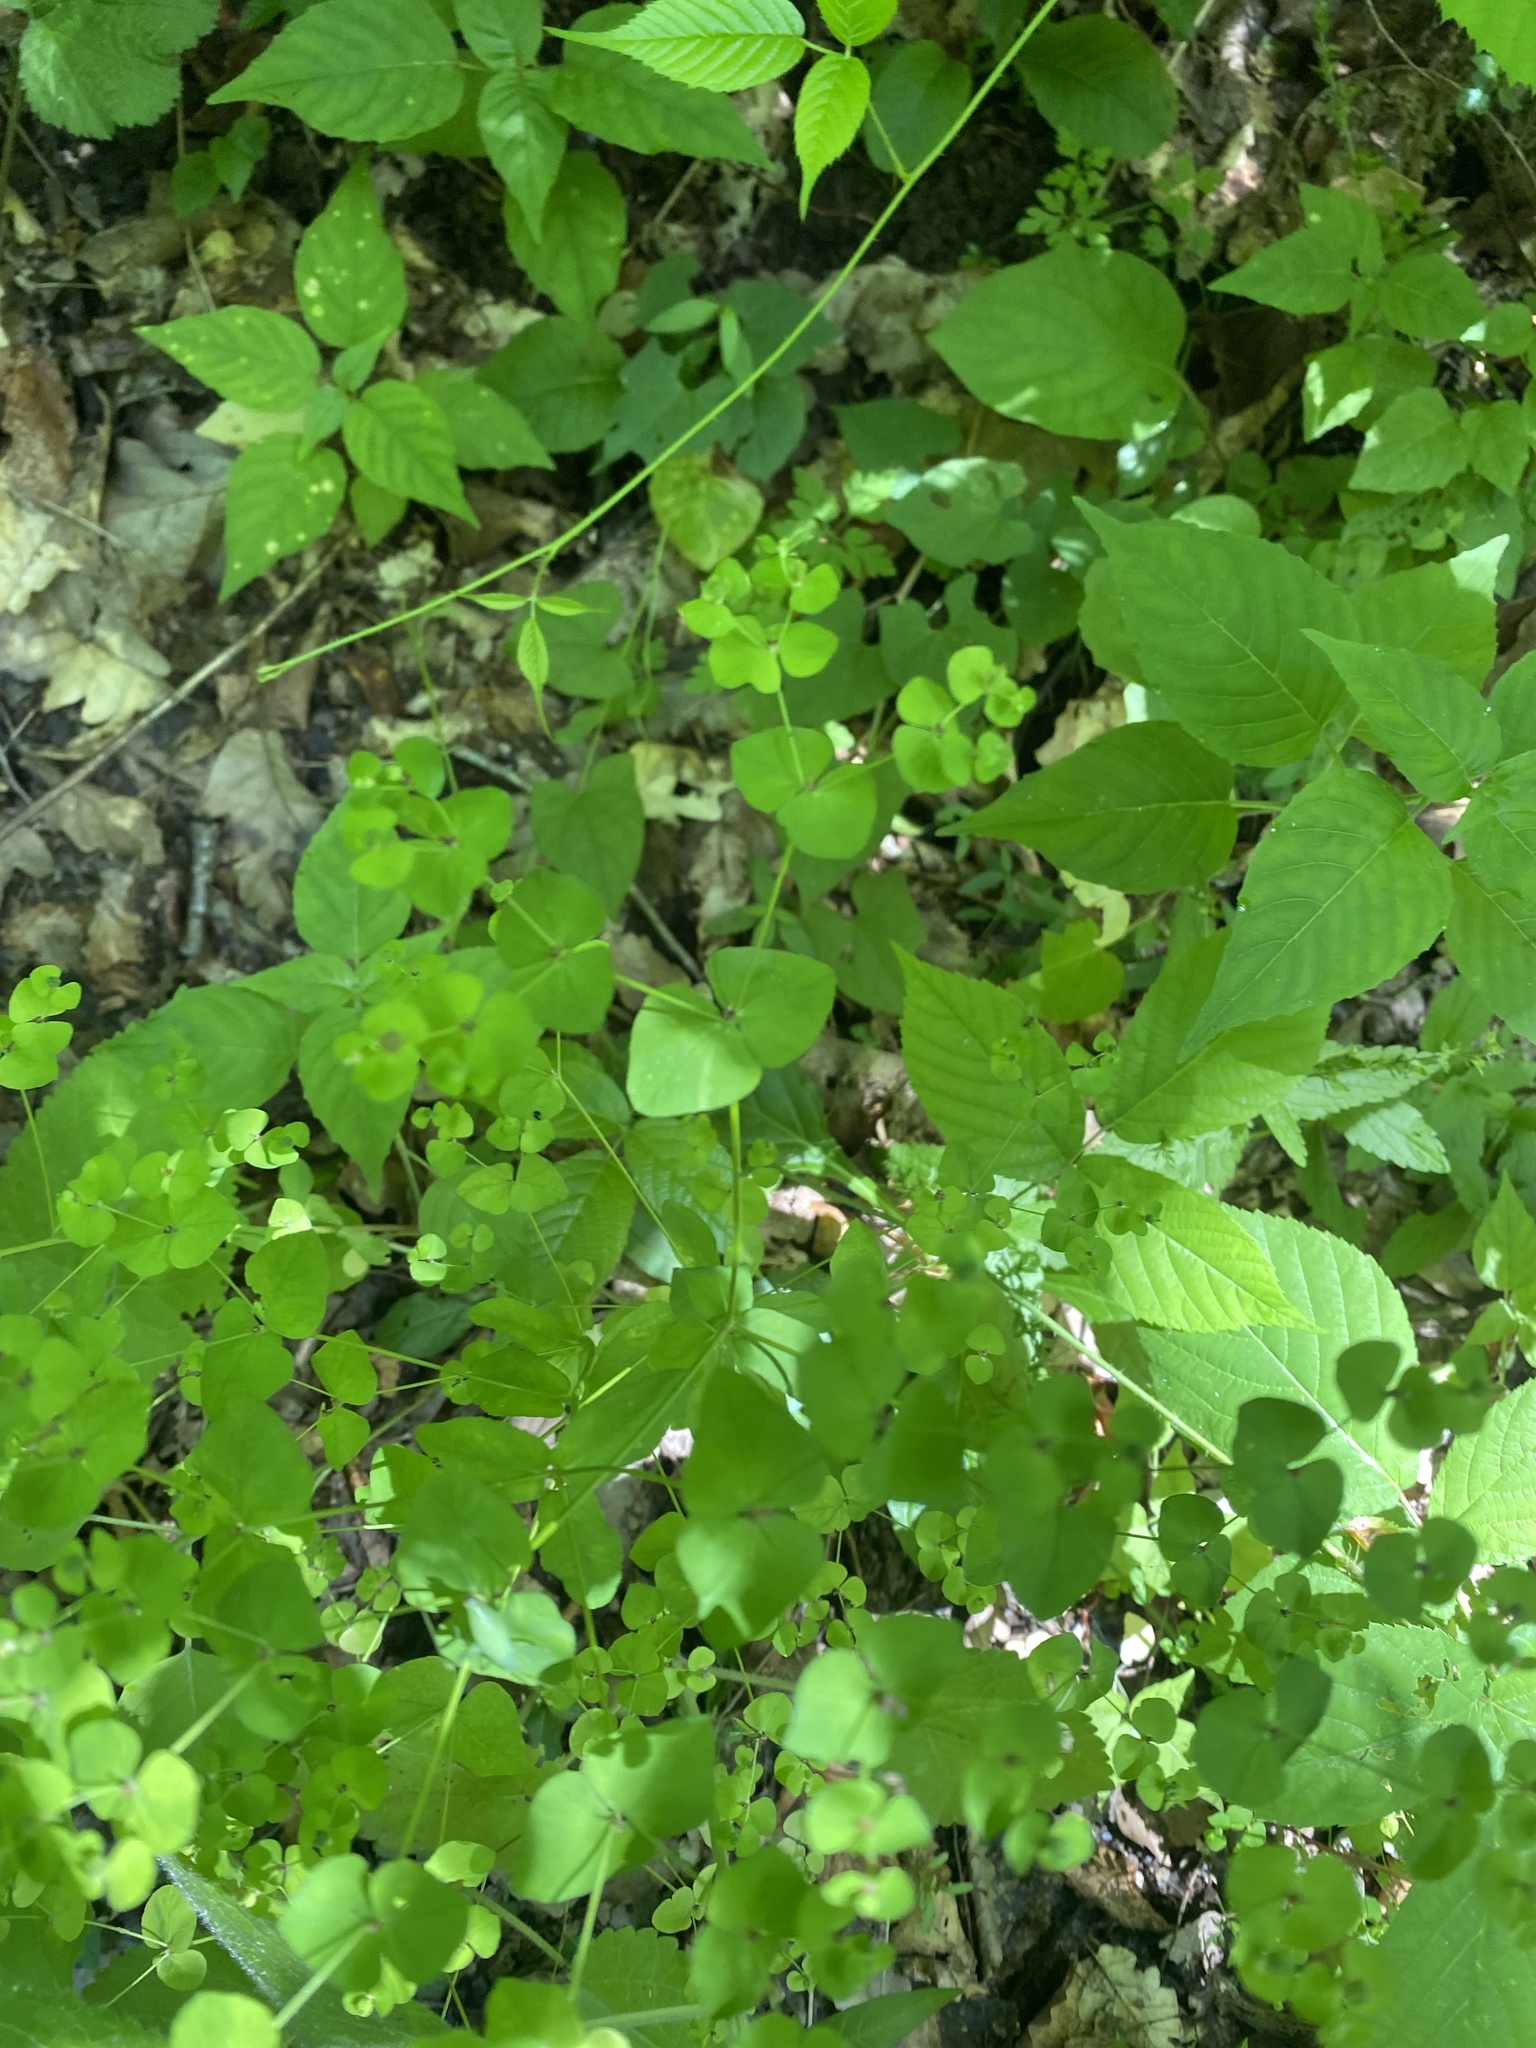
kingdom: Plantae
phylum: Tracheophyta
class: Magnoliopsida
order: Malpighiales
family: Euphorbiaceae
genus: Euphorbia
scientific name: Euphorbia stricta
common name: Upright spurge
